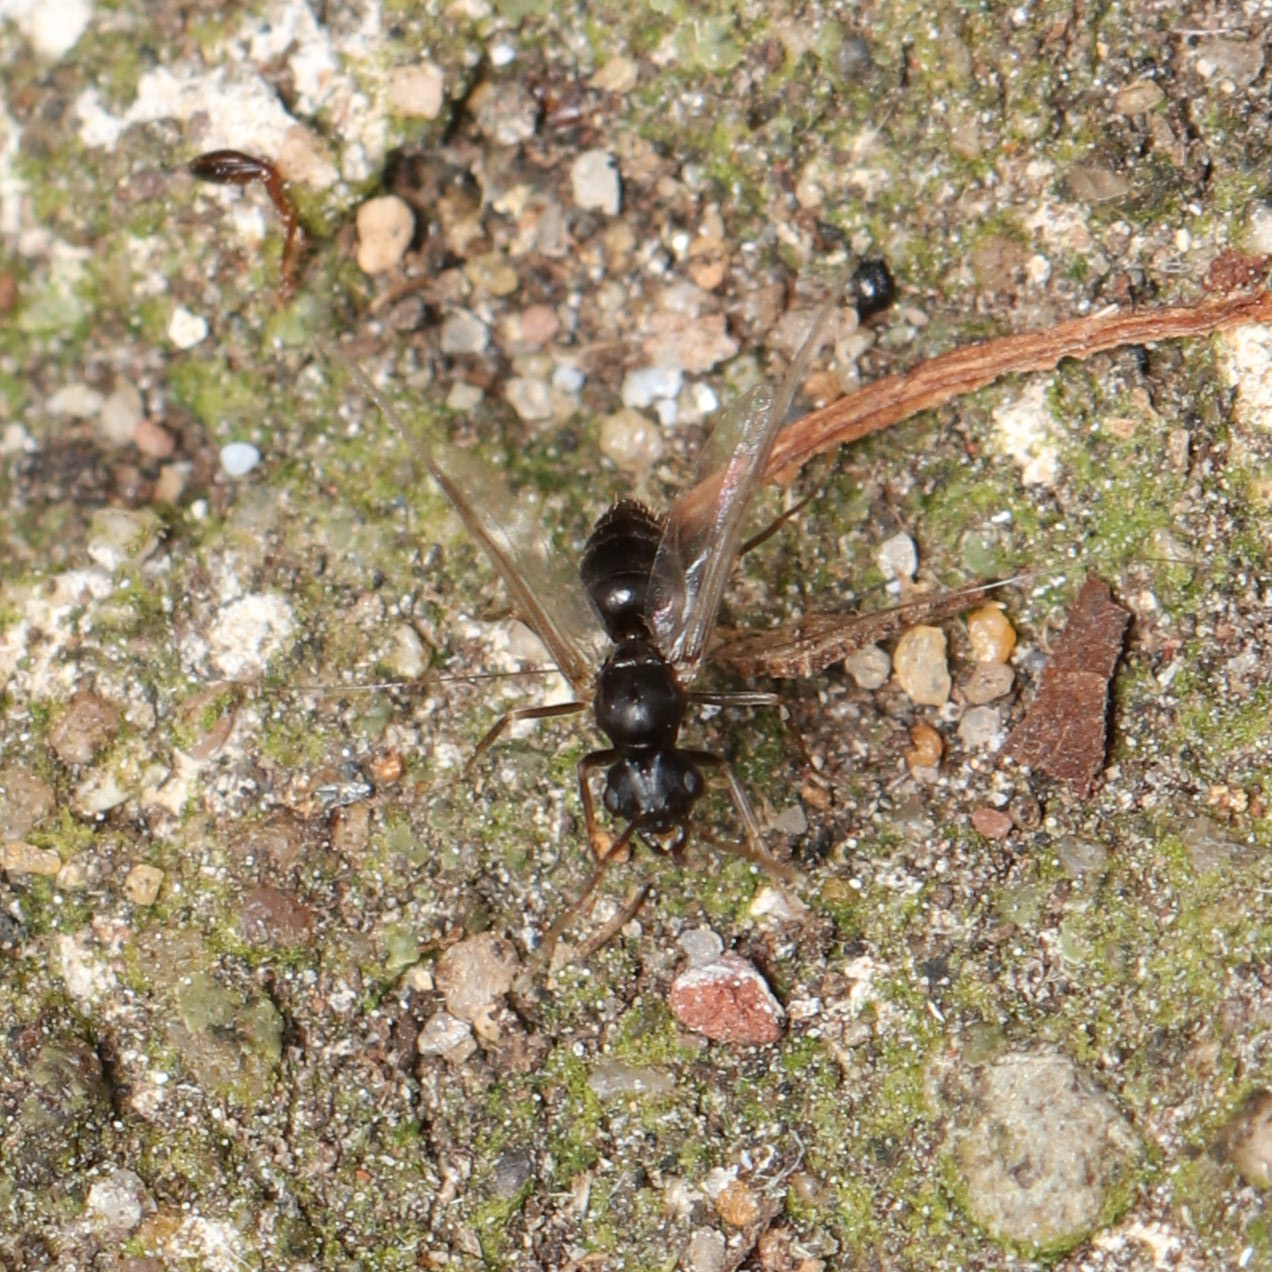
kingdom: Animalia
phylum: Arthropoda
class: Insecta
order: Hymenoptera
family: Formicidae
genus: Lasius
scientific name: Lasius americanus
